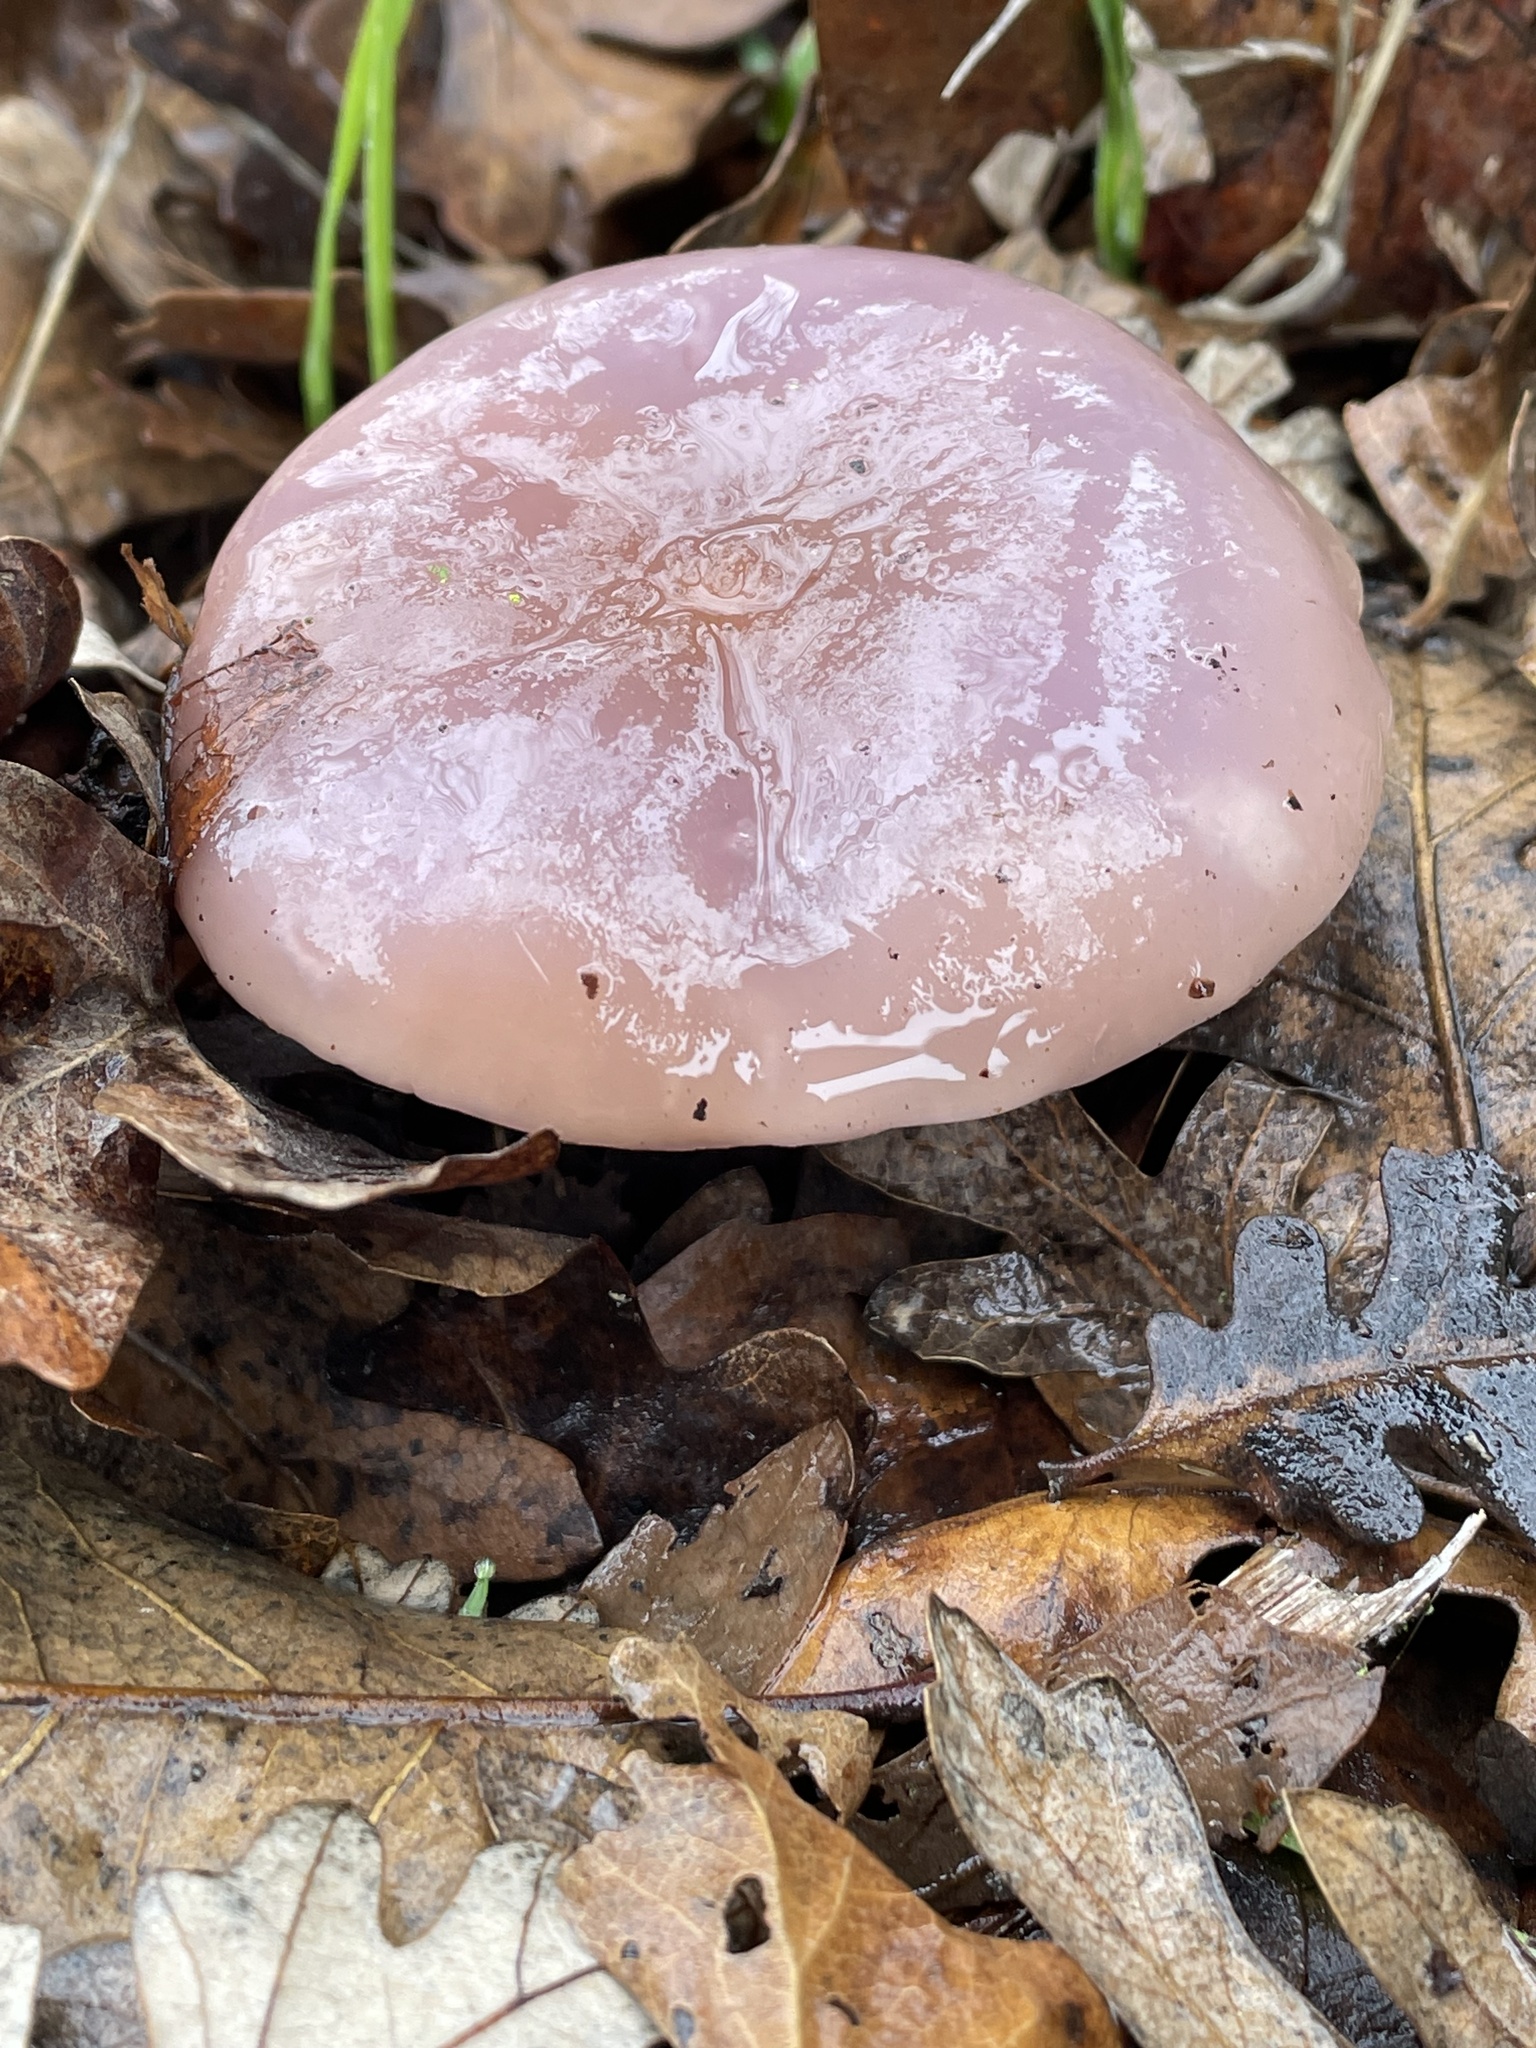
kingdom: Fungi
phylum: Basidiomycota
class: Agaricomycetes
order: Agaricales
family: Tricholomataceae
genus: Collybia
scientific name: Collybia
